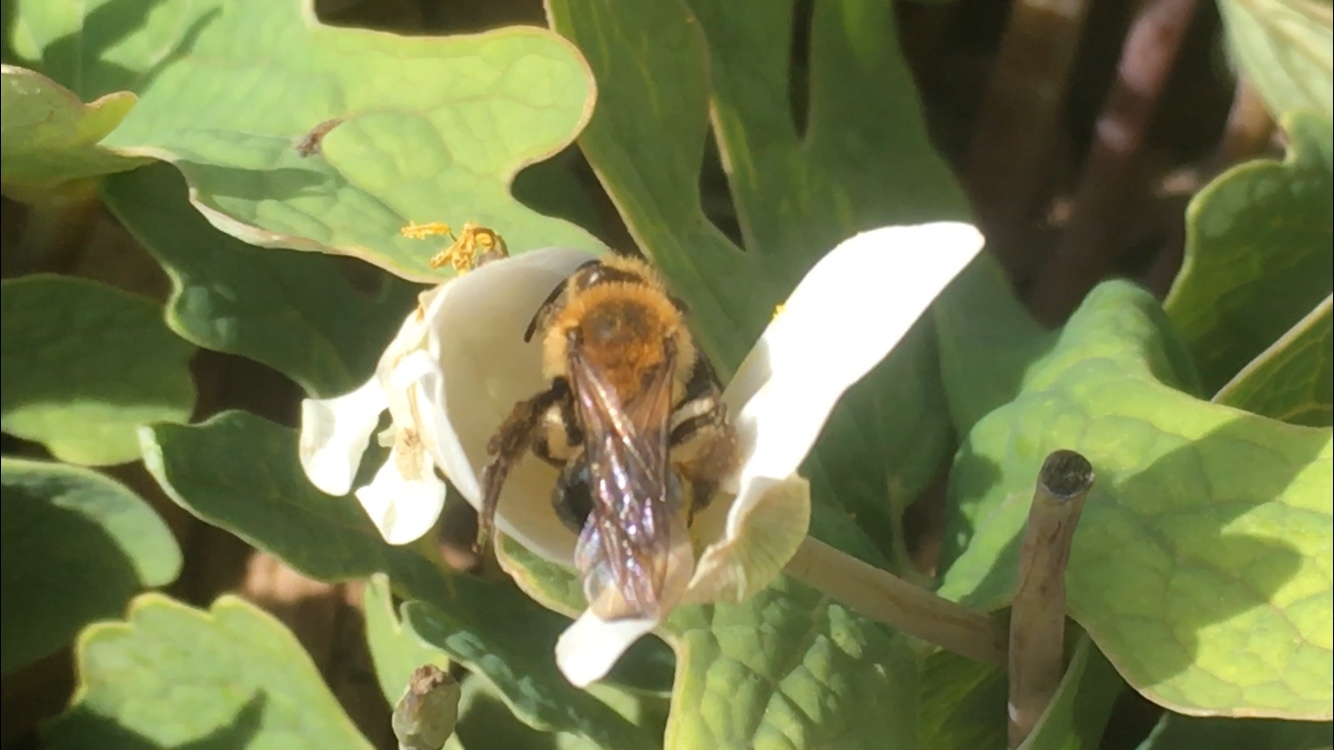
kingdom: Animalia
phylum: Arthropoda
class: Insecta
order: Hymenoptera
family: Andrenidae
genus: Andrena
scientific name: Andrena dunningi
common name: Dunning's miner
